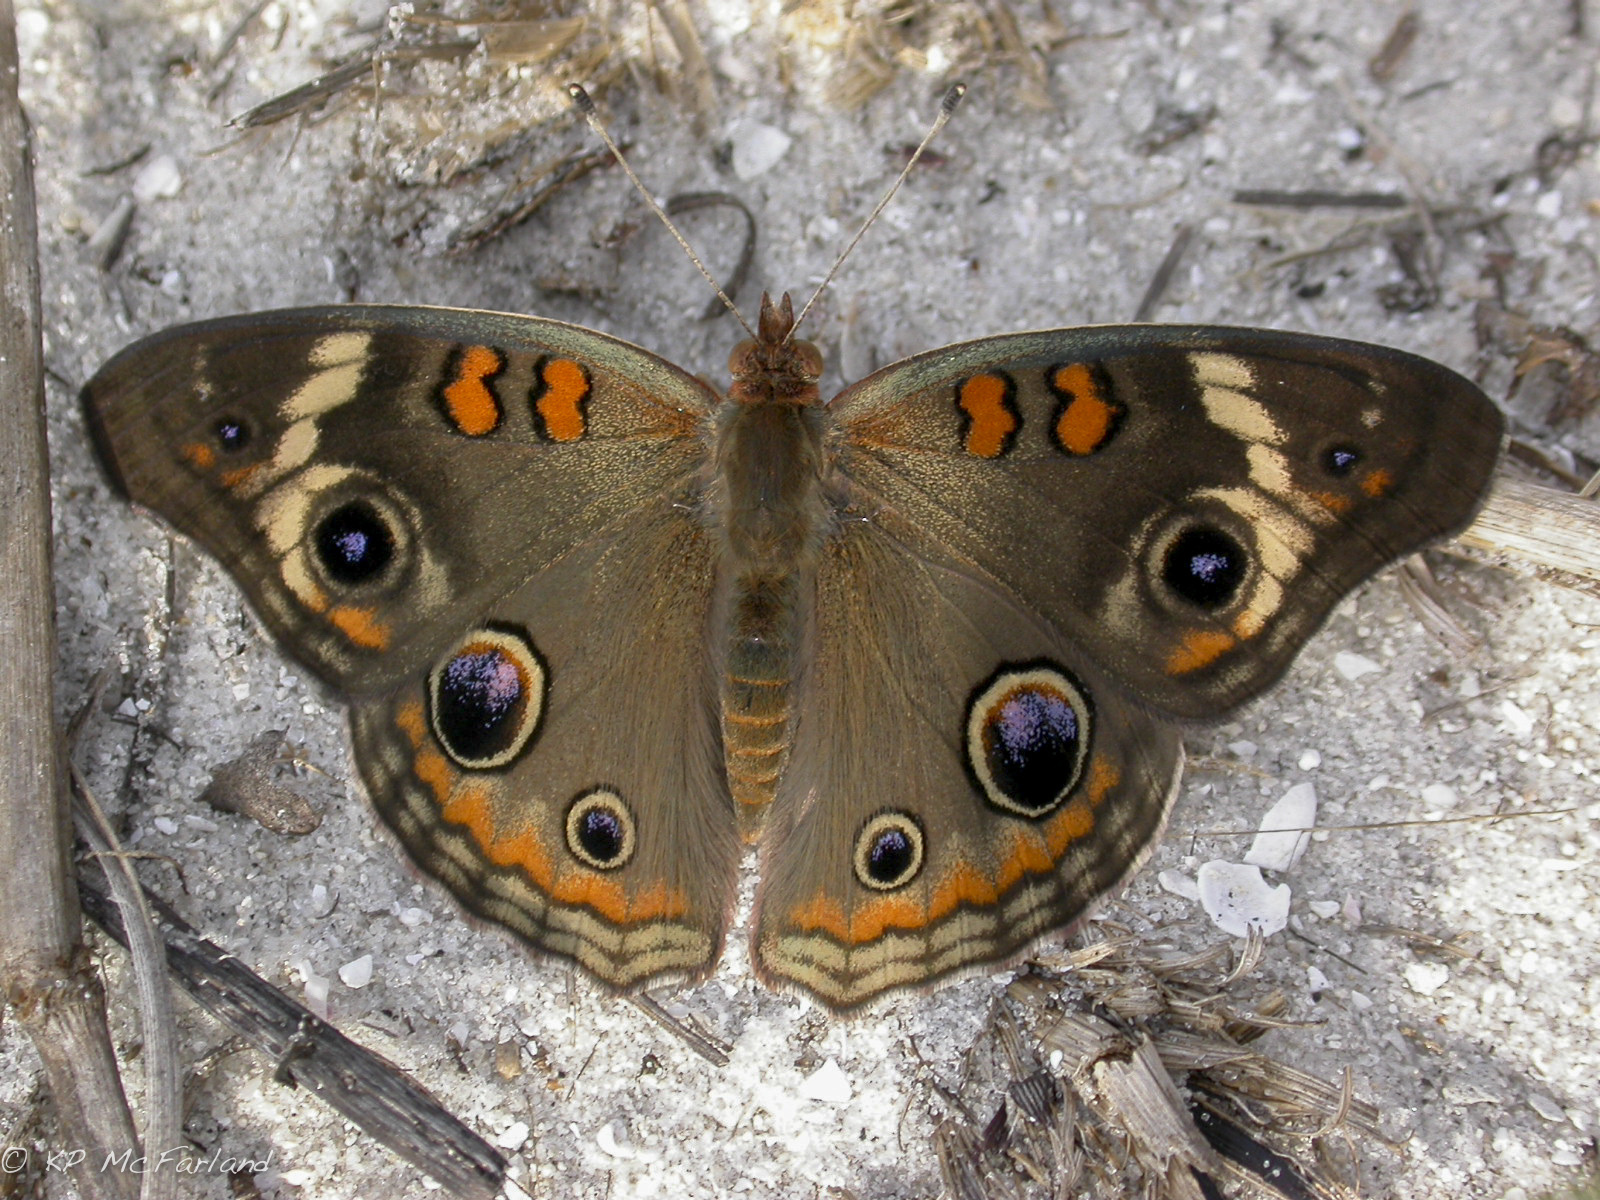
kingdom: Animalia
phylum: Arthropoda
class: Insecta
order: Lepidoptera
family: Nymphalidae
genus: Junonia
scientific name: Junonia coenia
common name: Common buckeye
